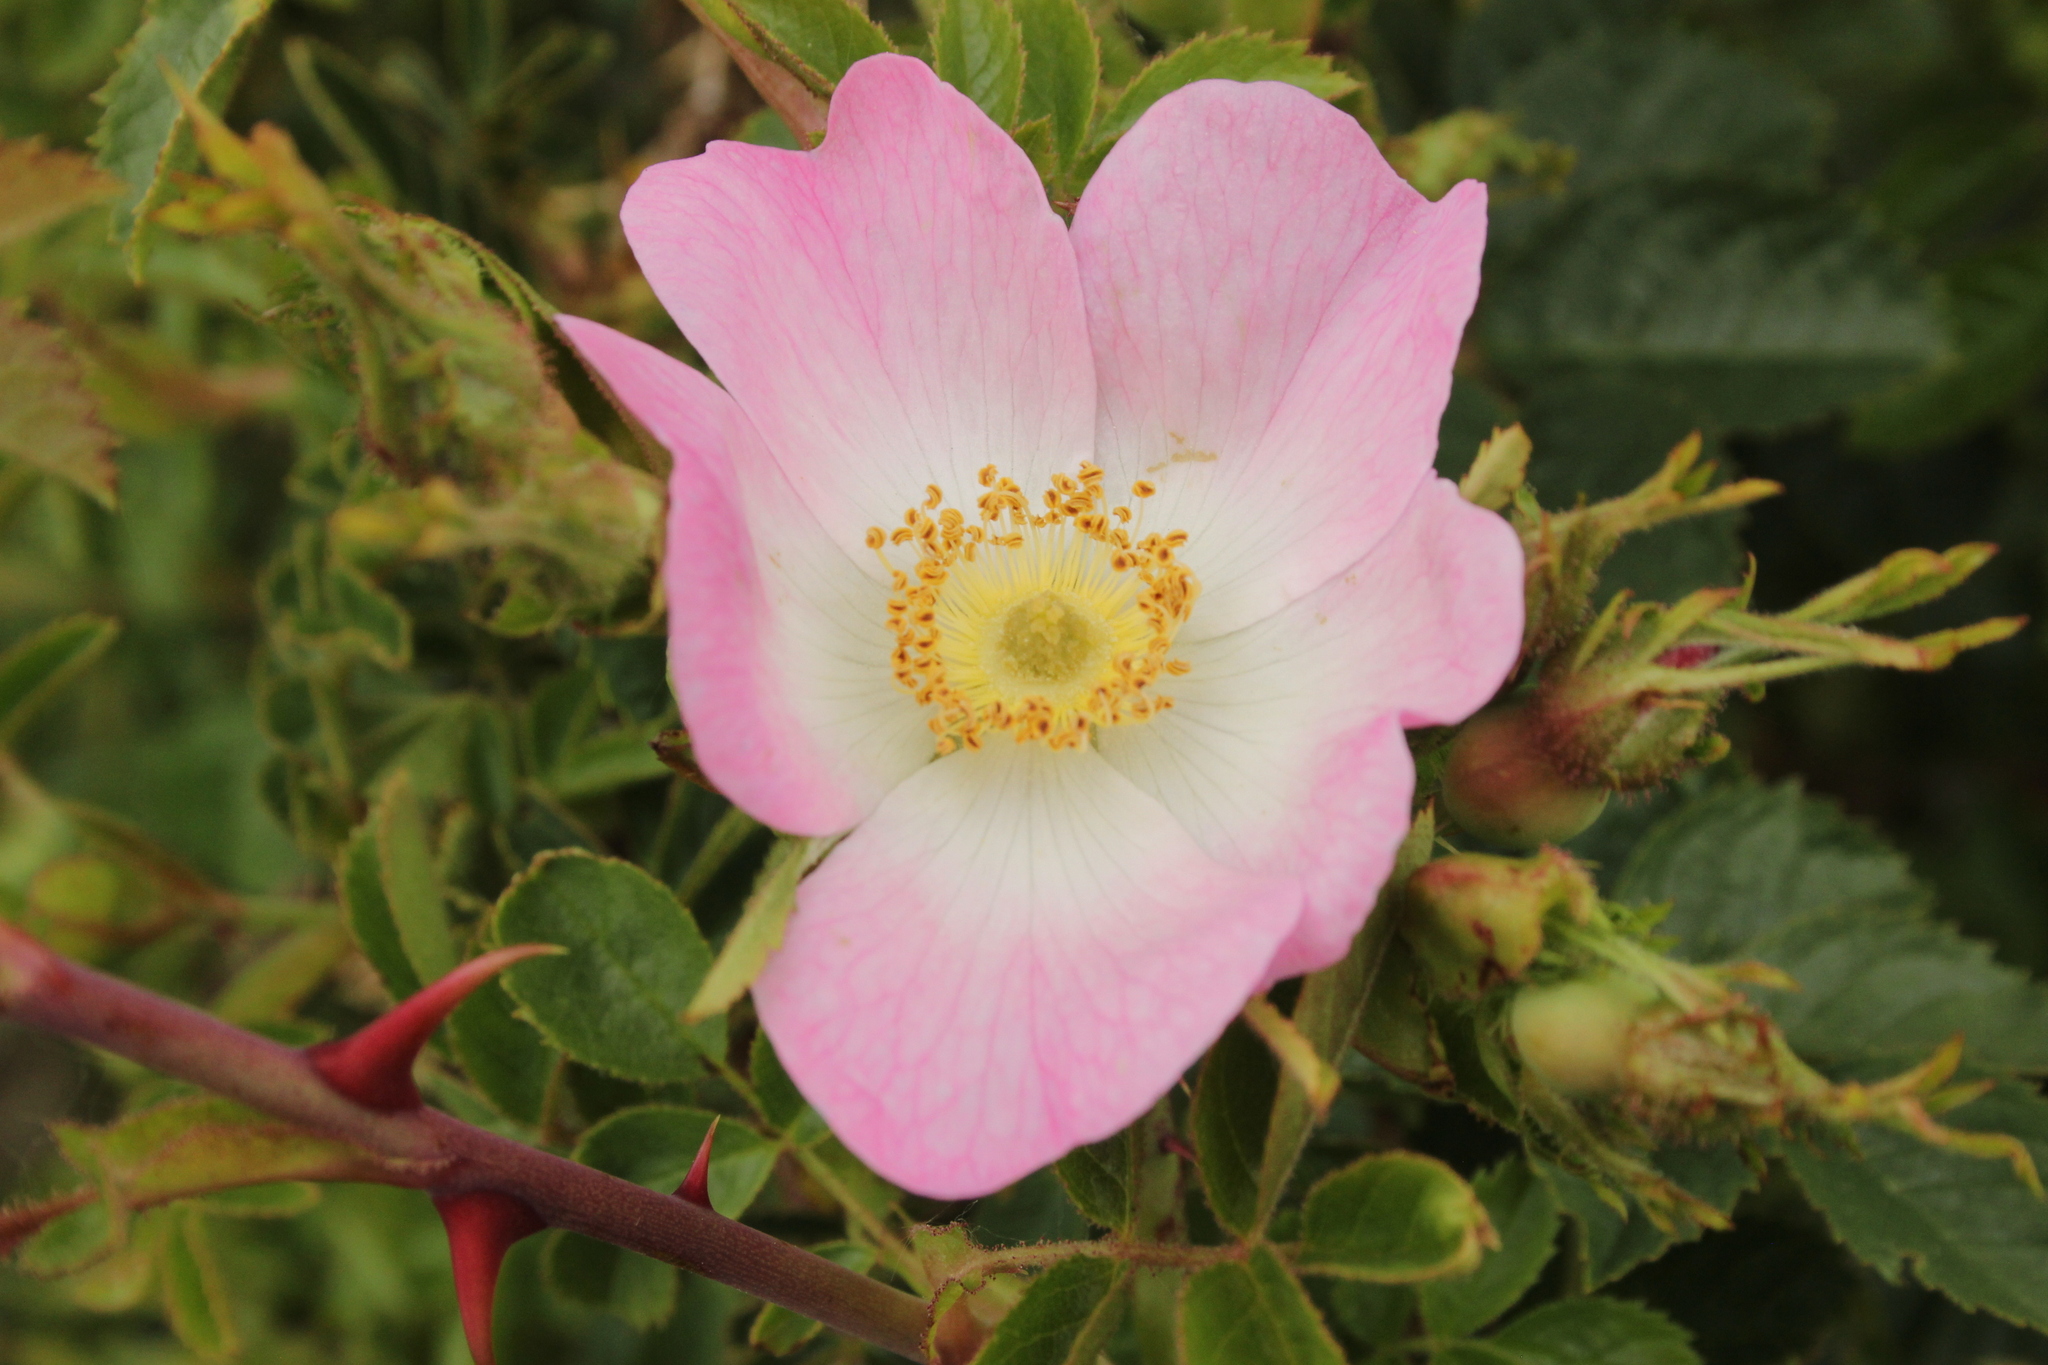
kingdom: Plantae
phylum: Tracheophyta
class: Magnoliopsida
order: Rosales
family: Rosaceae
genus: Rosa
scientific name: Rosa rubiginosa
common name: Sweet-briar
